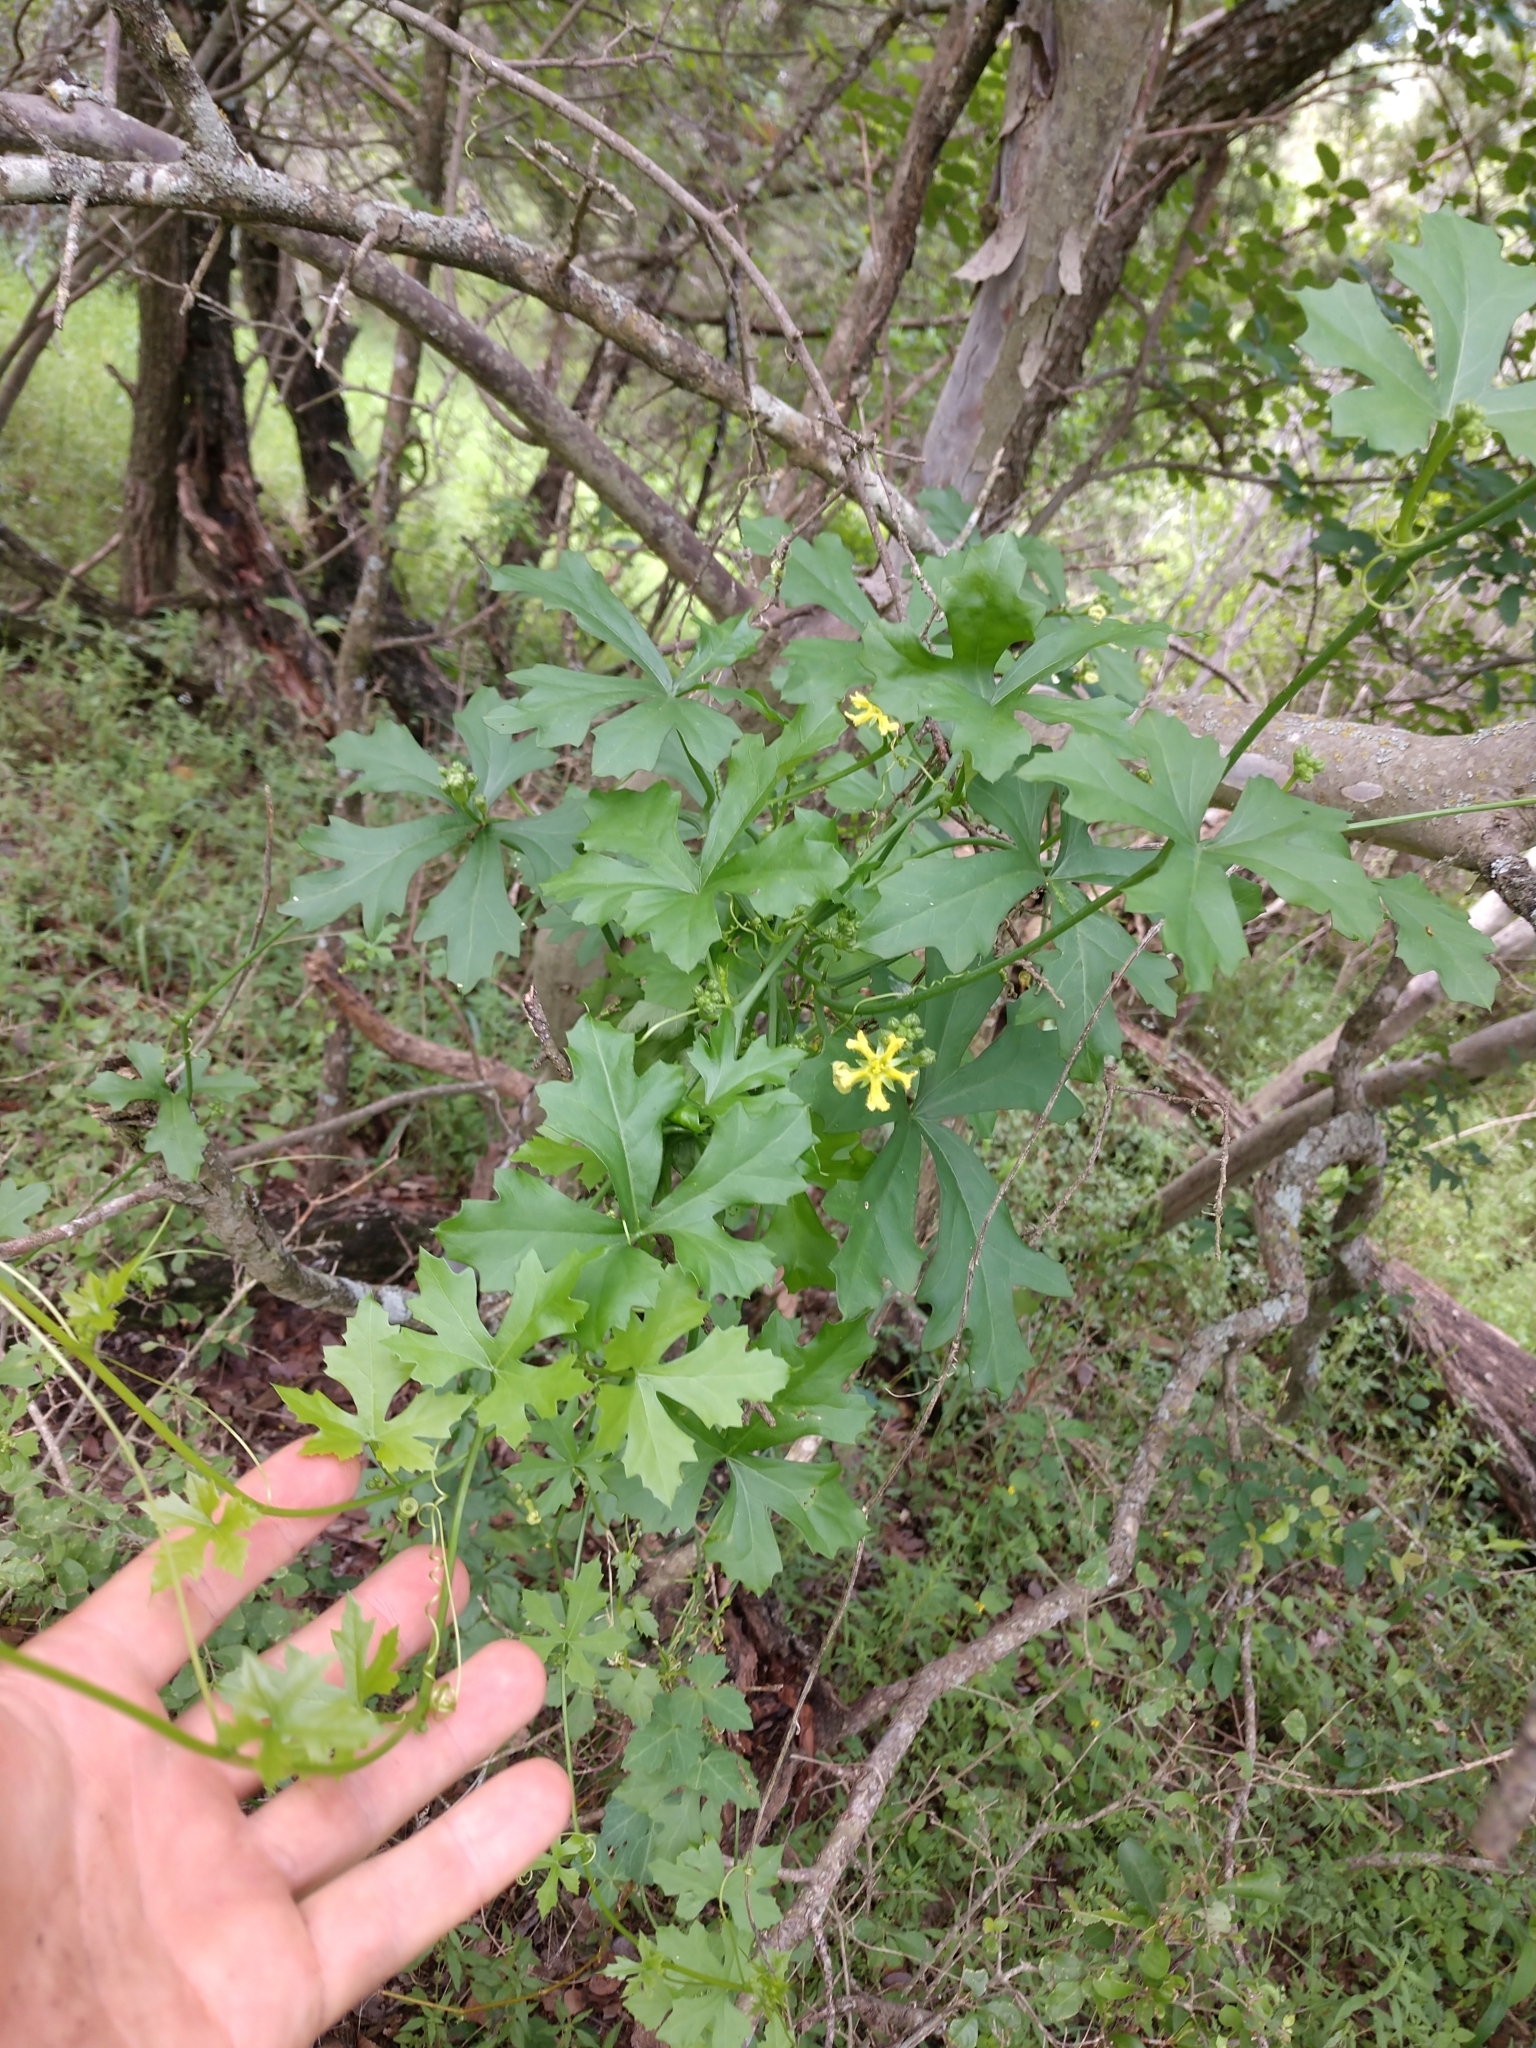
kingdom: Plantae
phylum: Tracheophyta
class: Magnoliopsida
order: Cucurbitales
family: Cucurbitaceae
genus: Ibervillea
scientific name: Ibervillea lindheimeri
